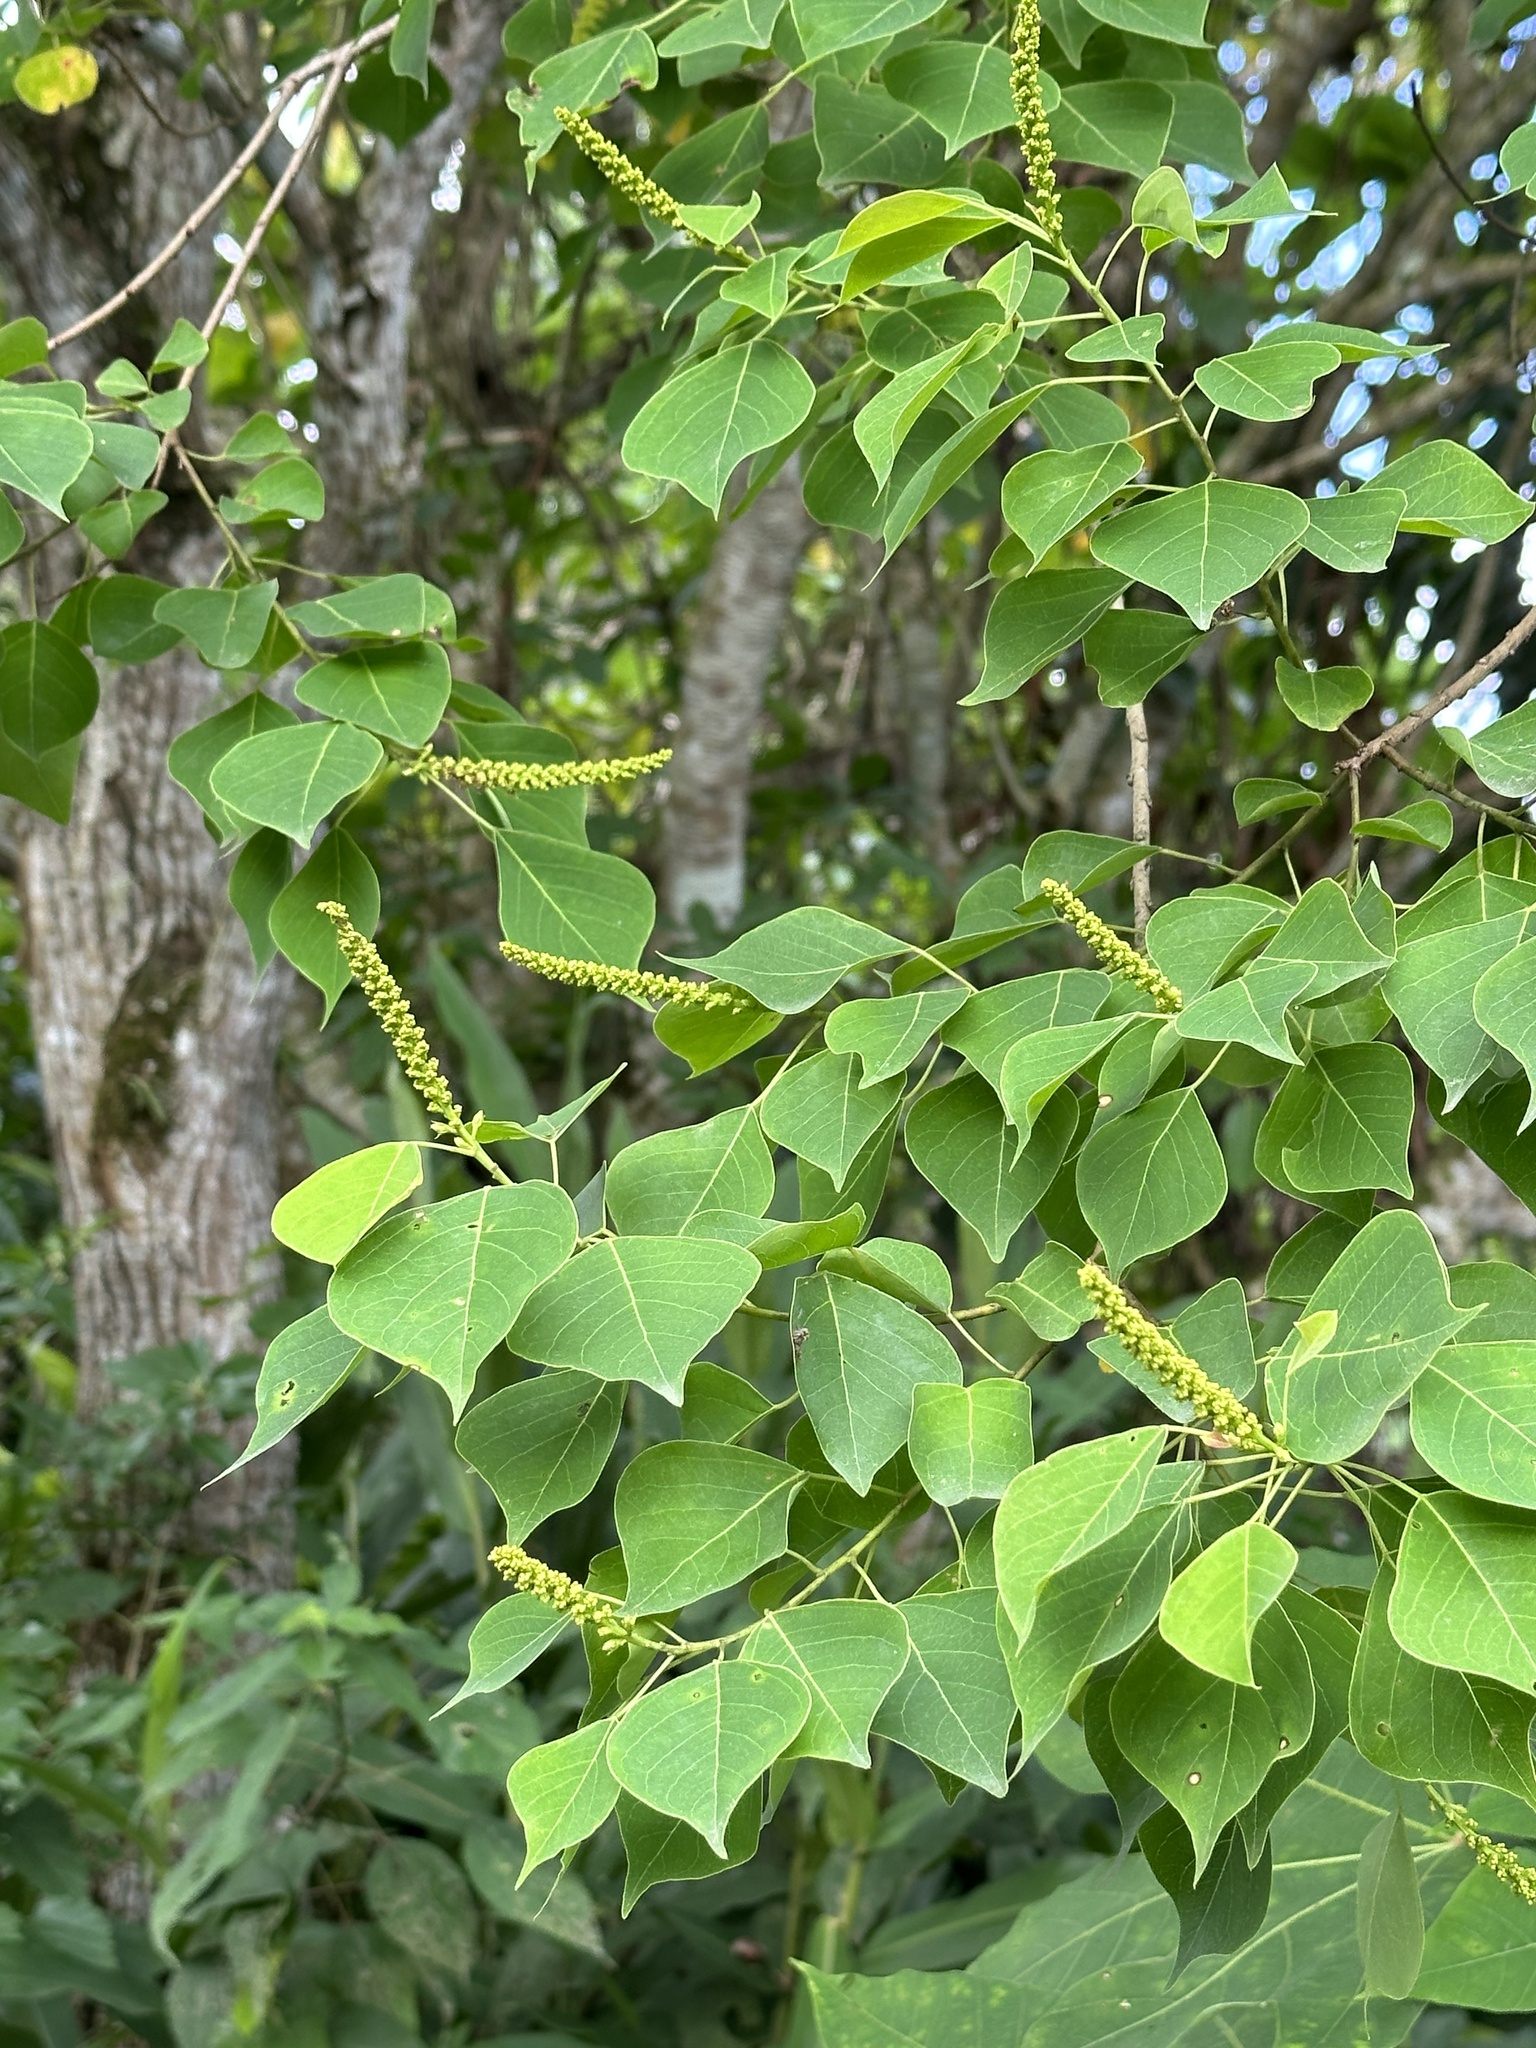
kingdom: Plantae
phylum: Tracheophyta
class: Magnoliopsida
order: Malpighiales
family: Euphorbiaceae
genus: Triadica
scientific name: Triadica sebifera
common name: Chinese tallow
